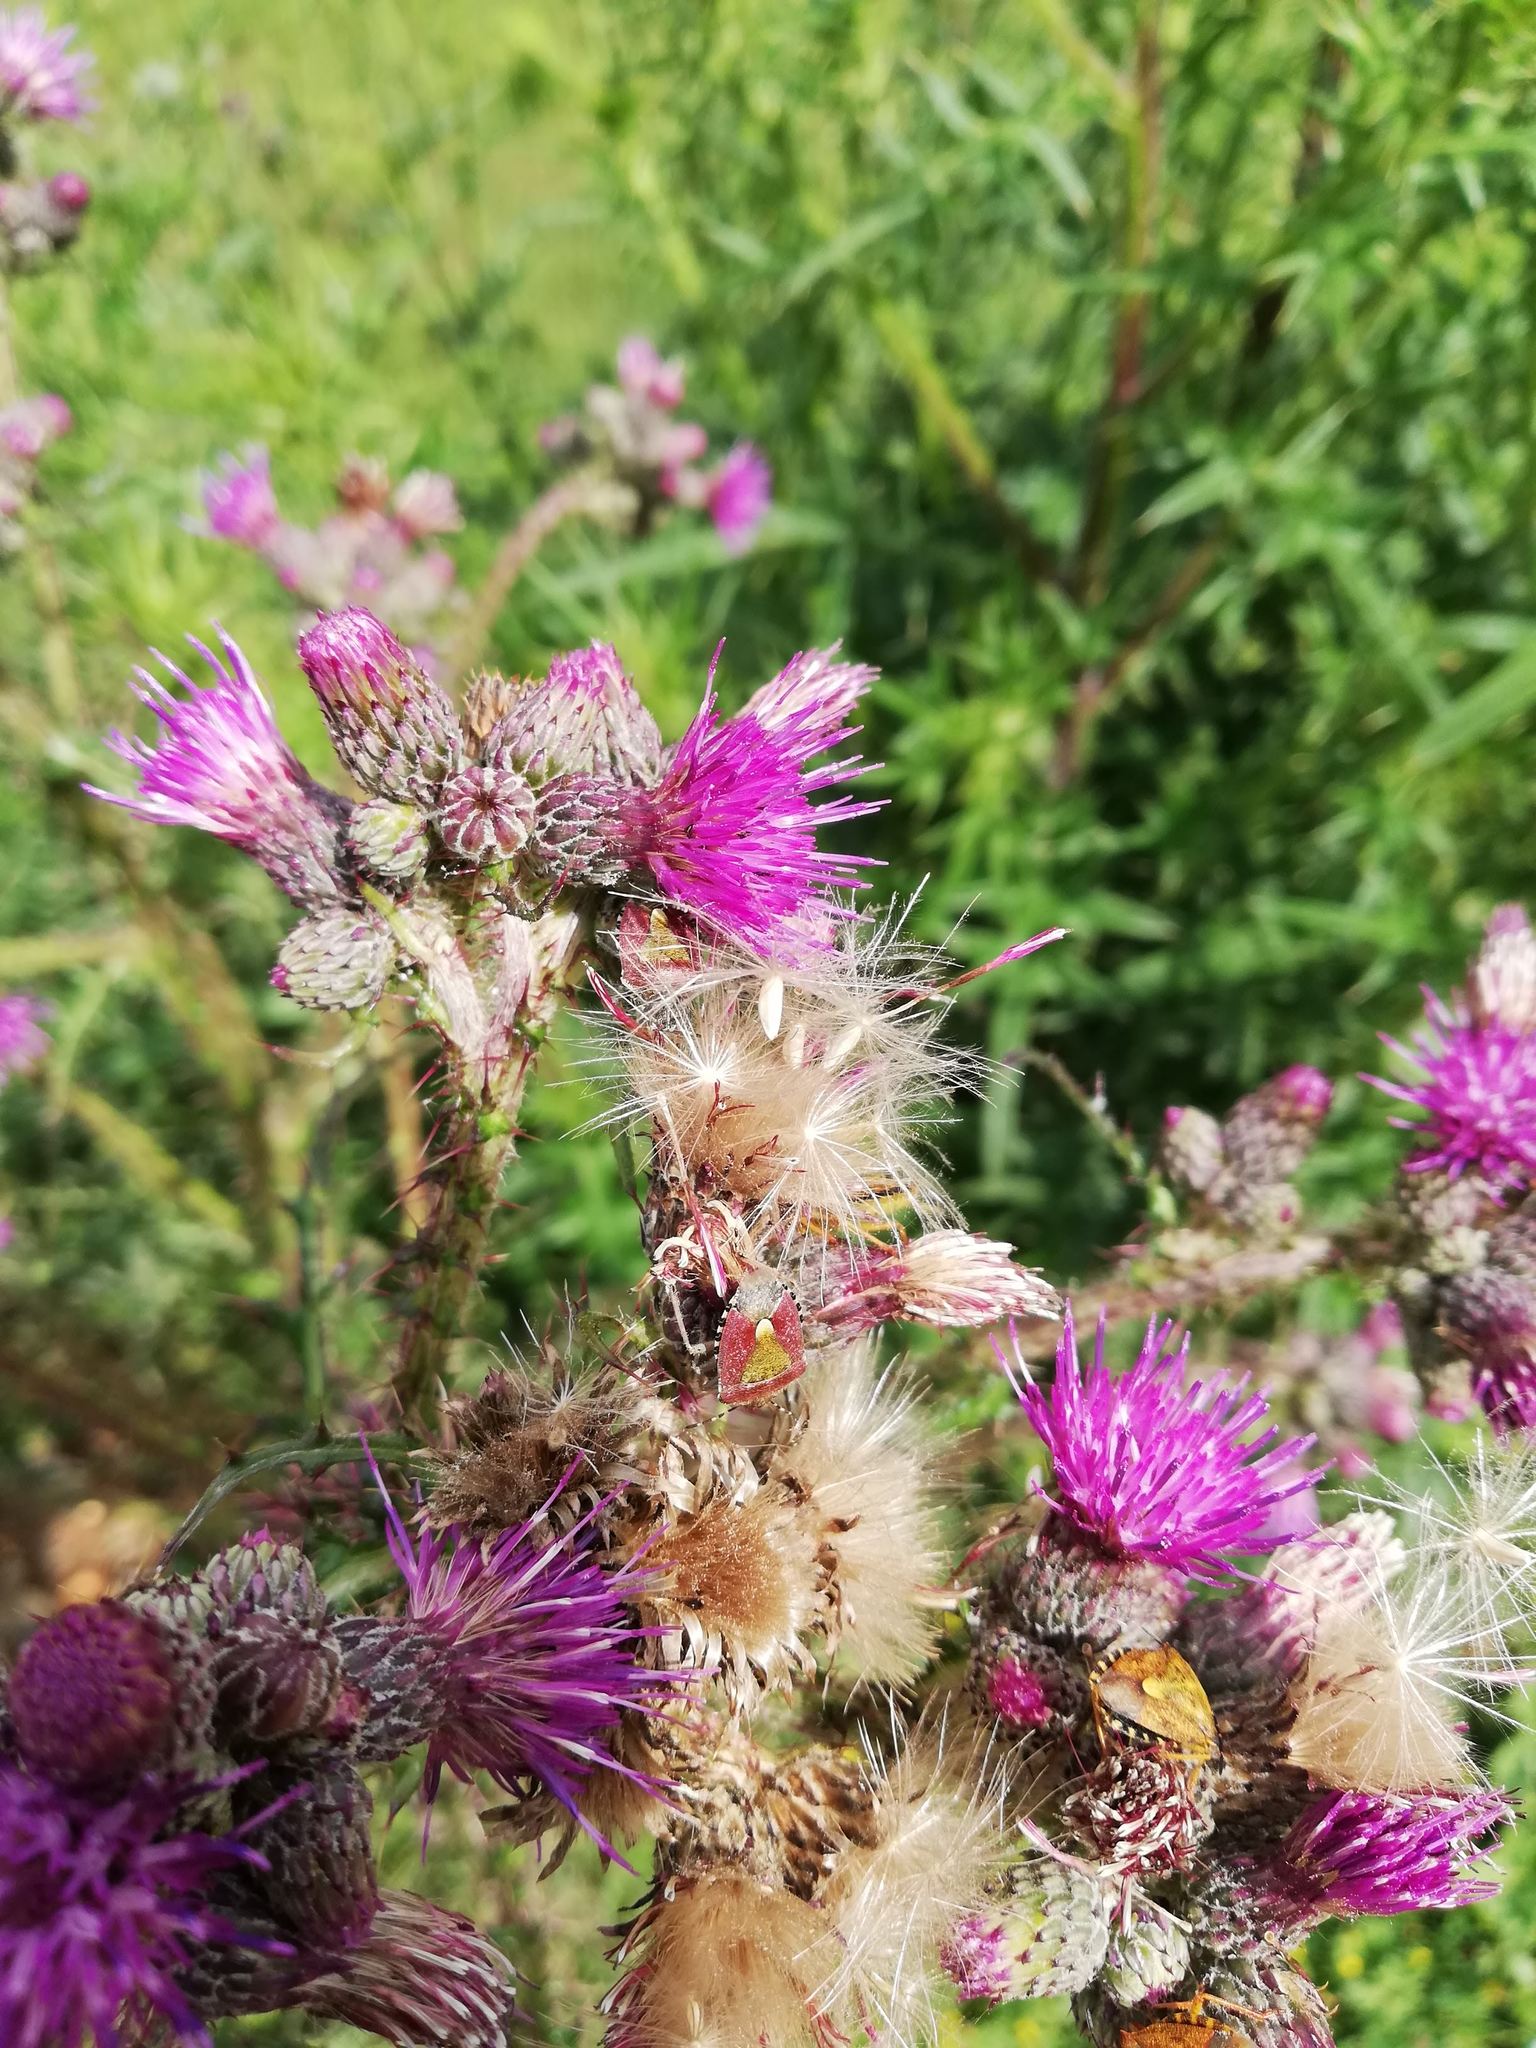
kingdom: Animalia
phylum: Arthropoda
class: Insecta
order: Hemiptera
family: Pentatomidae
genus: Dolycoris
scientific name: Dolycoris baccarum
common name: Sloe bug
